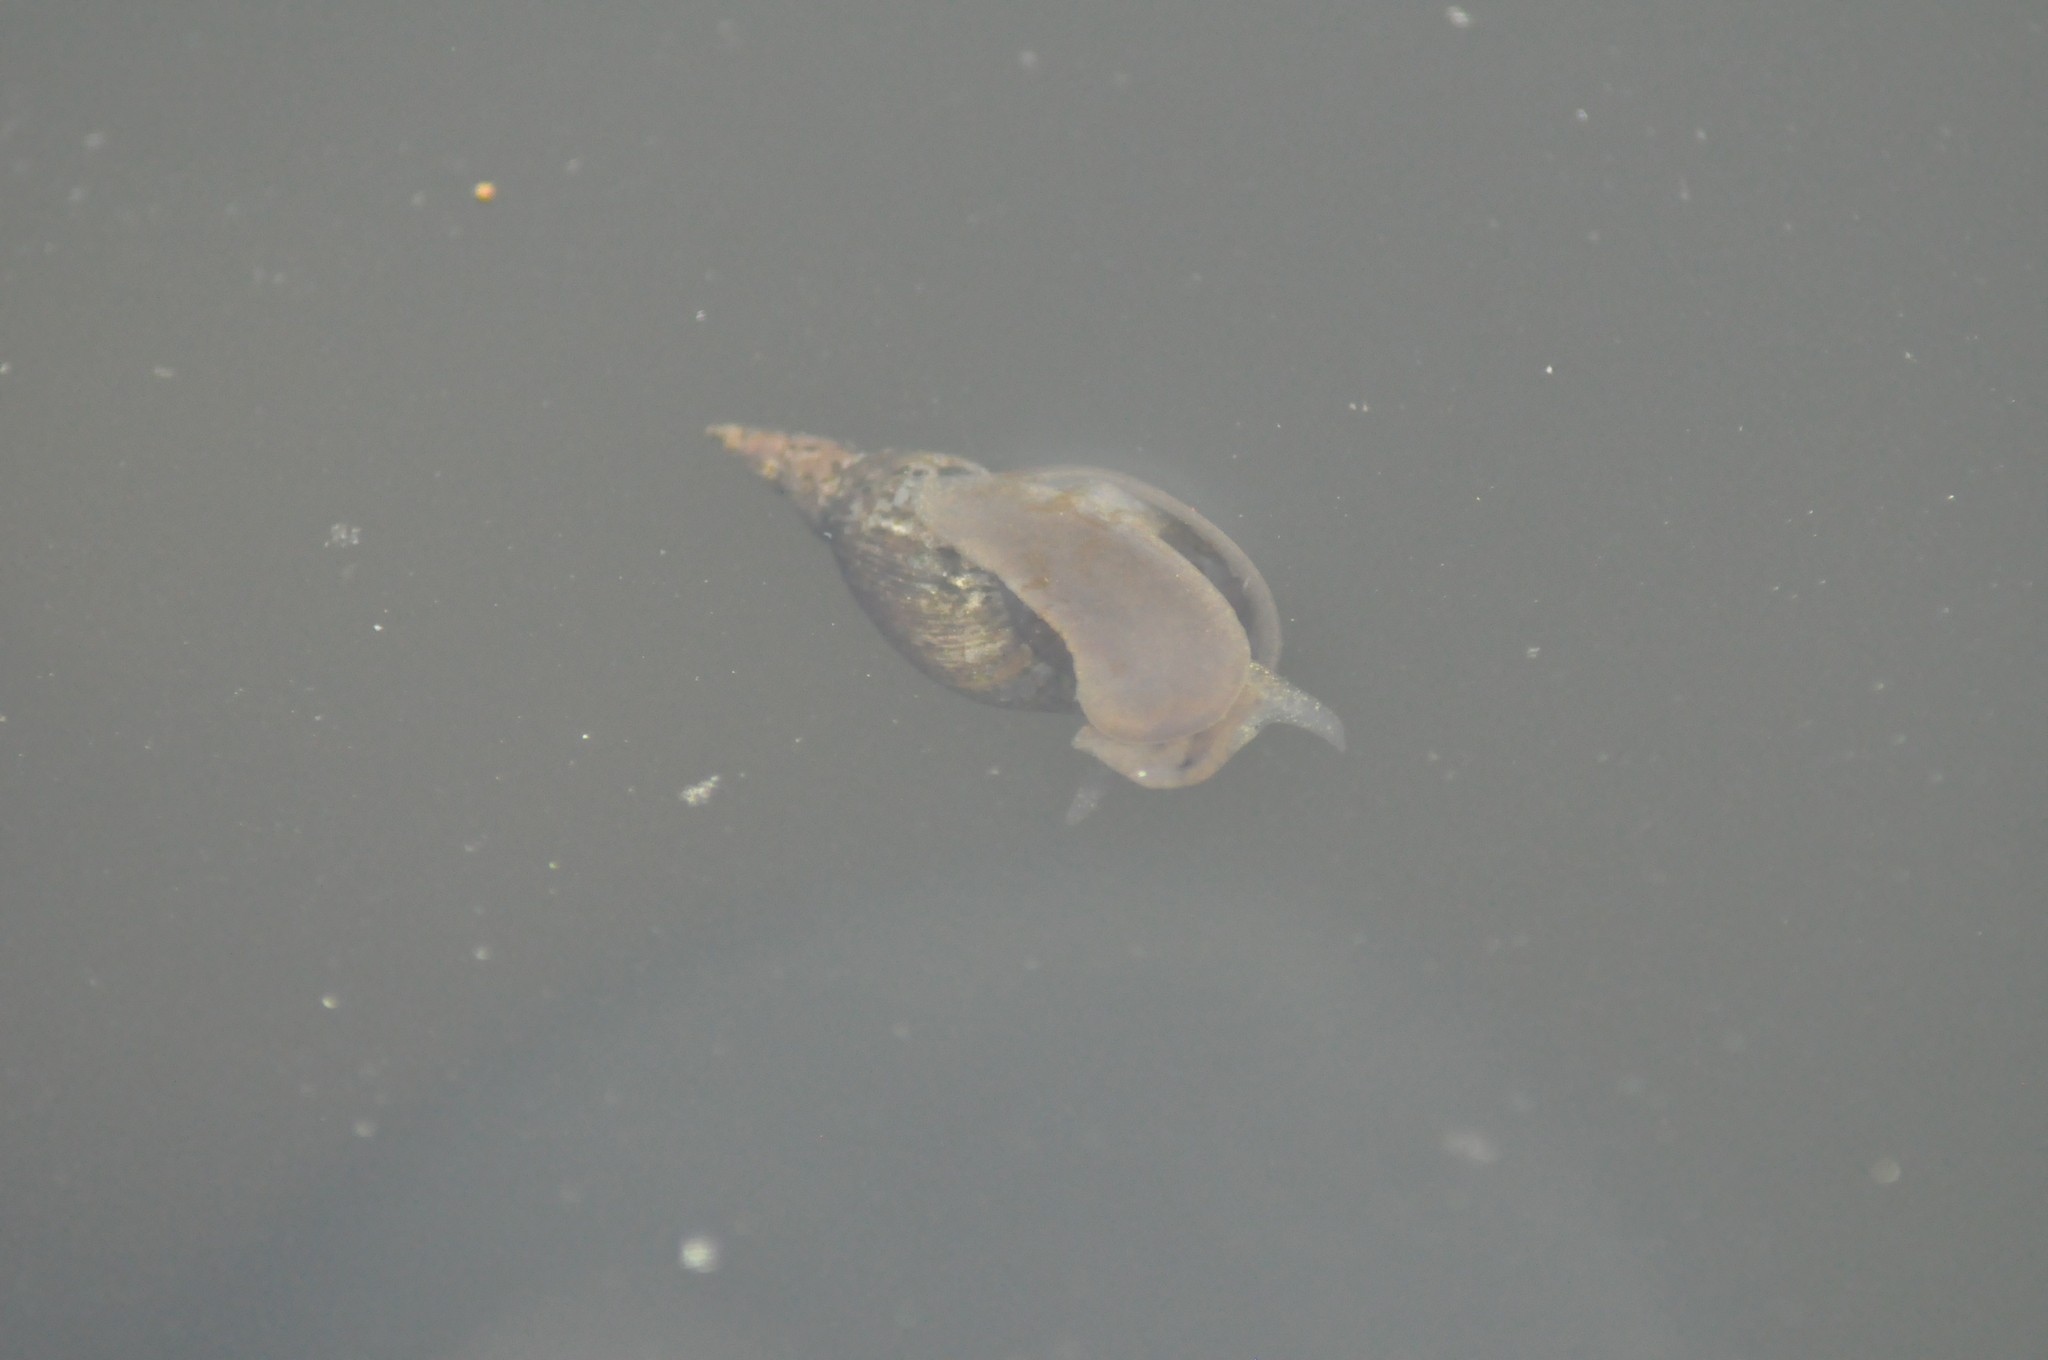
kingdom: Animalia
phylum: Mollusca
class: Gastropoda
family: Lymnaeidae
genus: Lymnaea
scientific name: Lymnaea stagnalis
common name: Great pond snail
